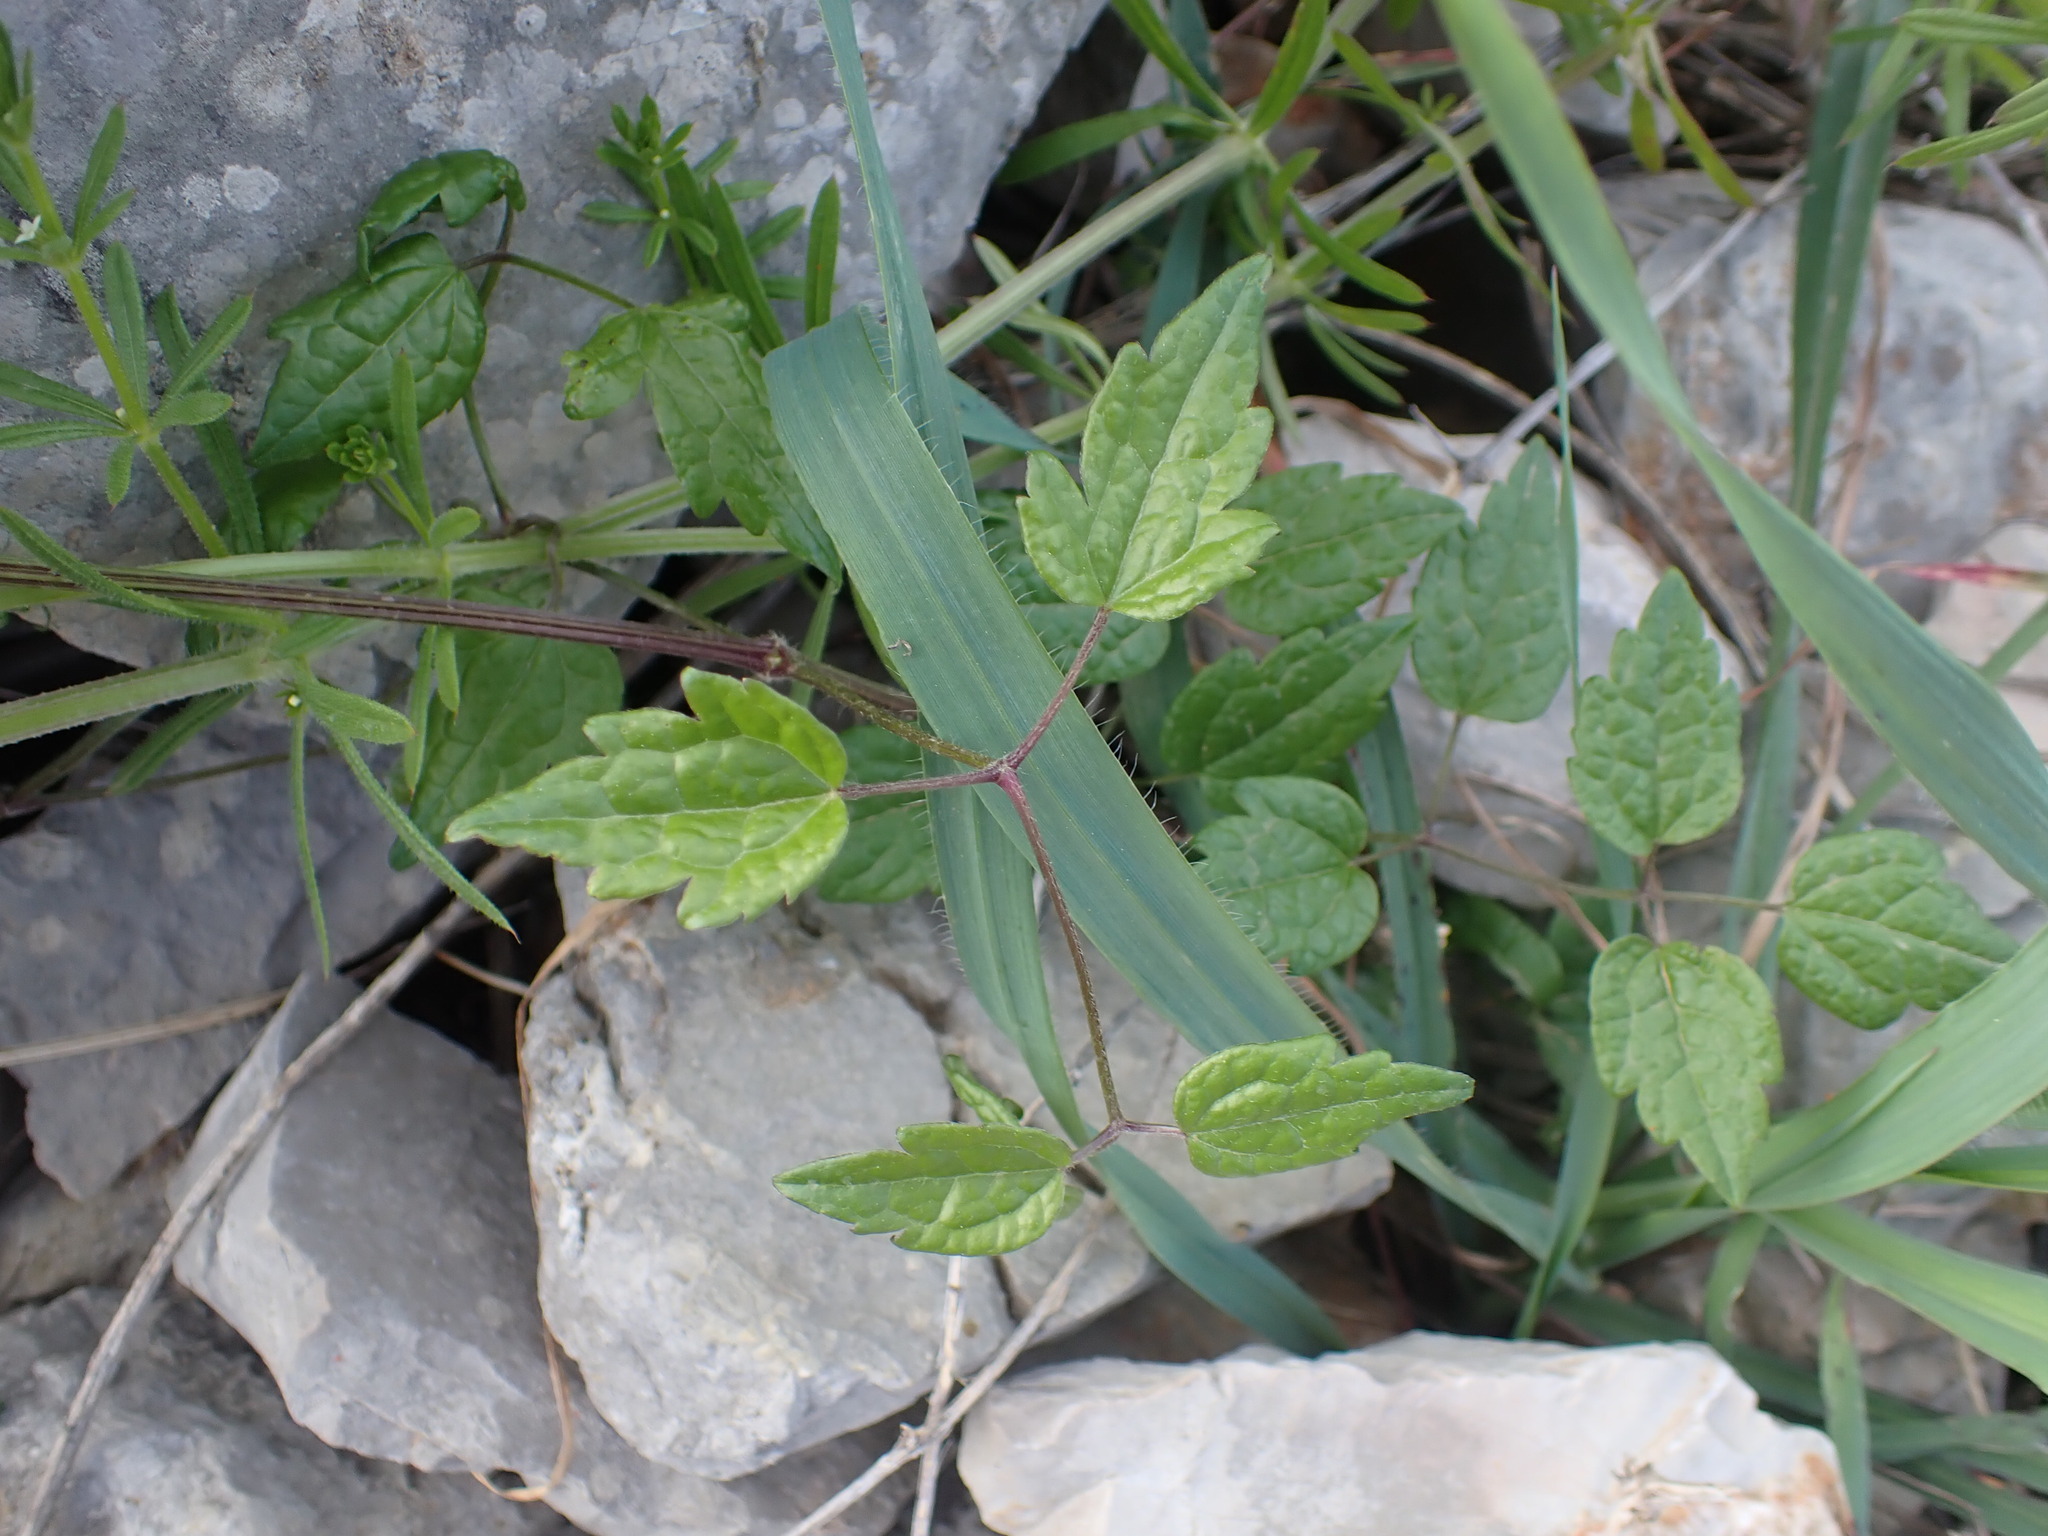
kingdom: Plantae
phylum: Tracheophyta
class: Magnoliopsida
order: Ranunculales
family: Ranunculaceae
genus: Clematis
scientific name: Clematis vitalba
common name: Evergreen clematis
